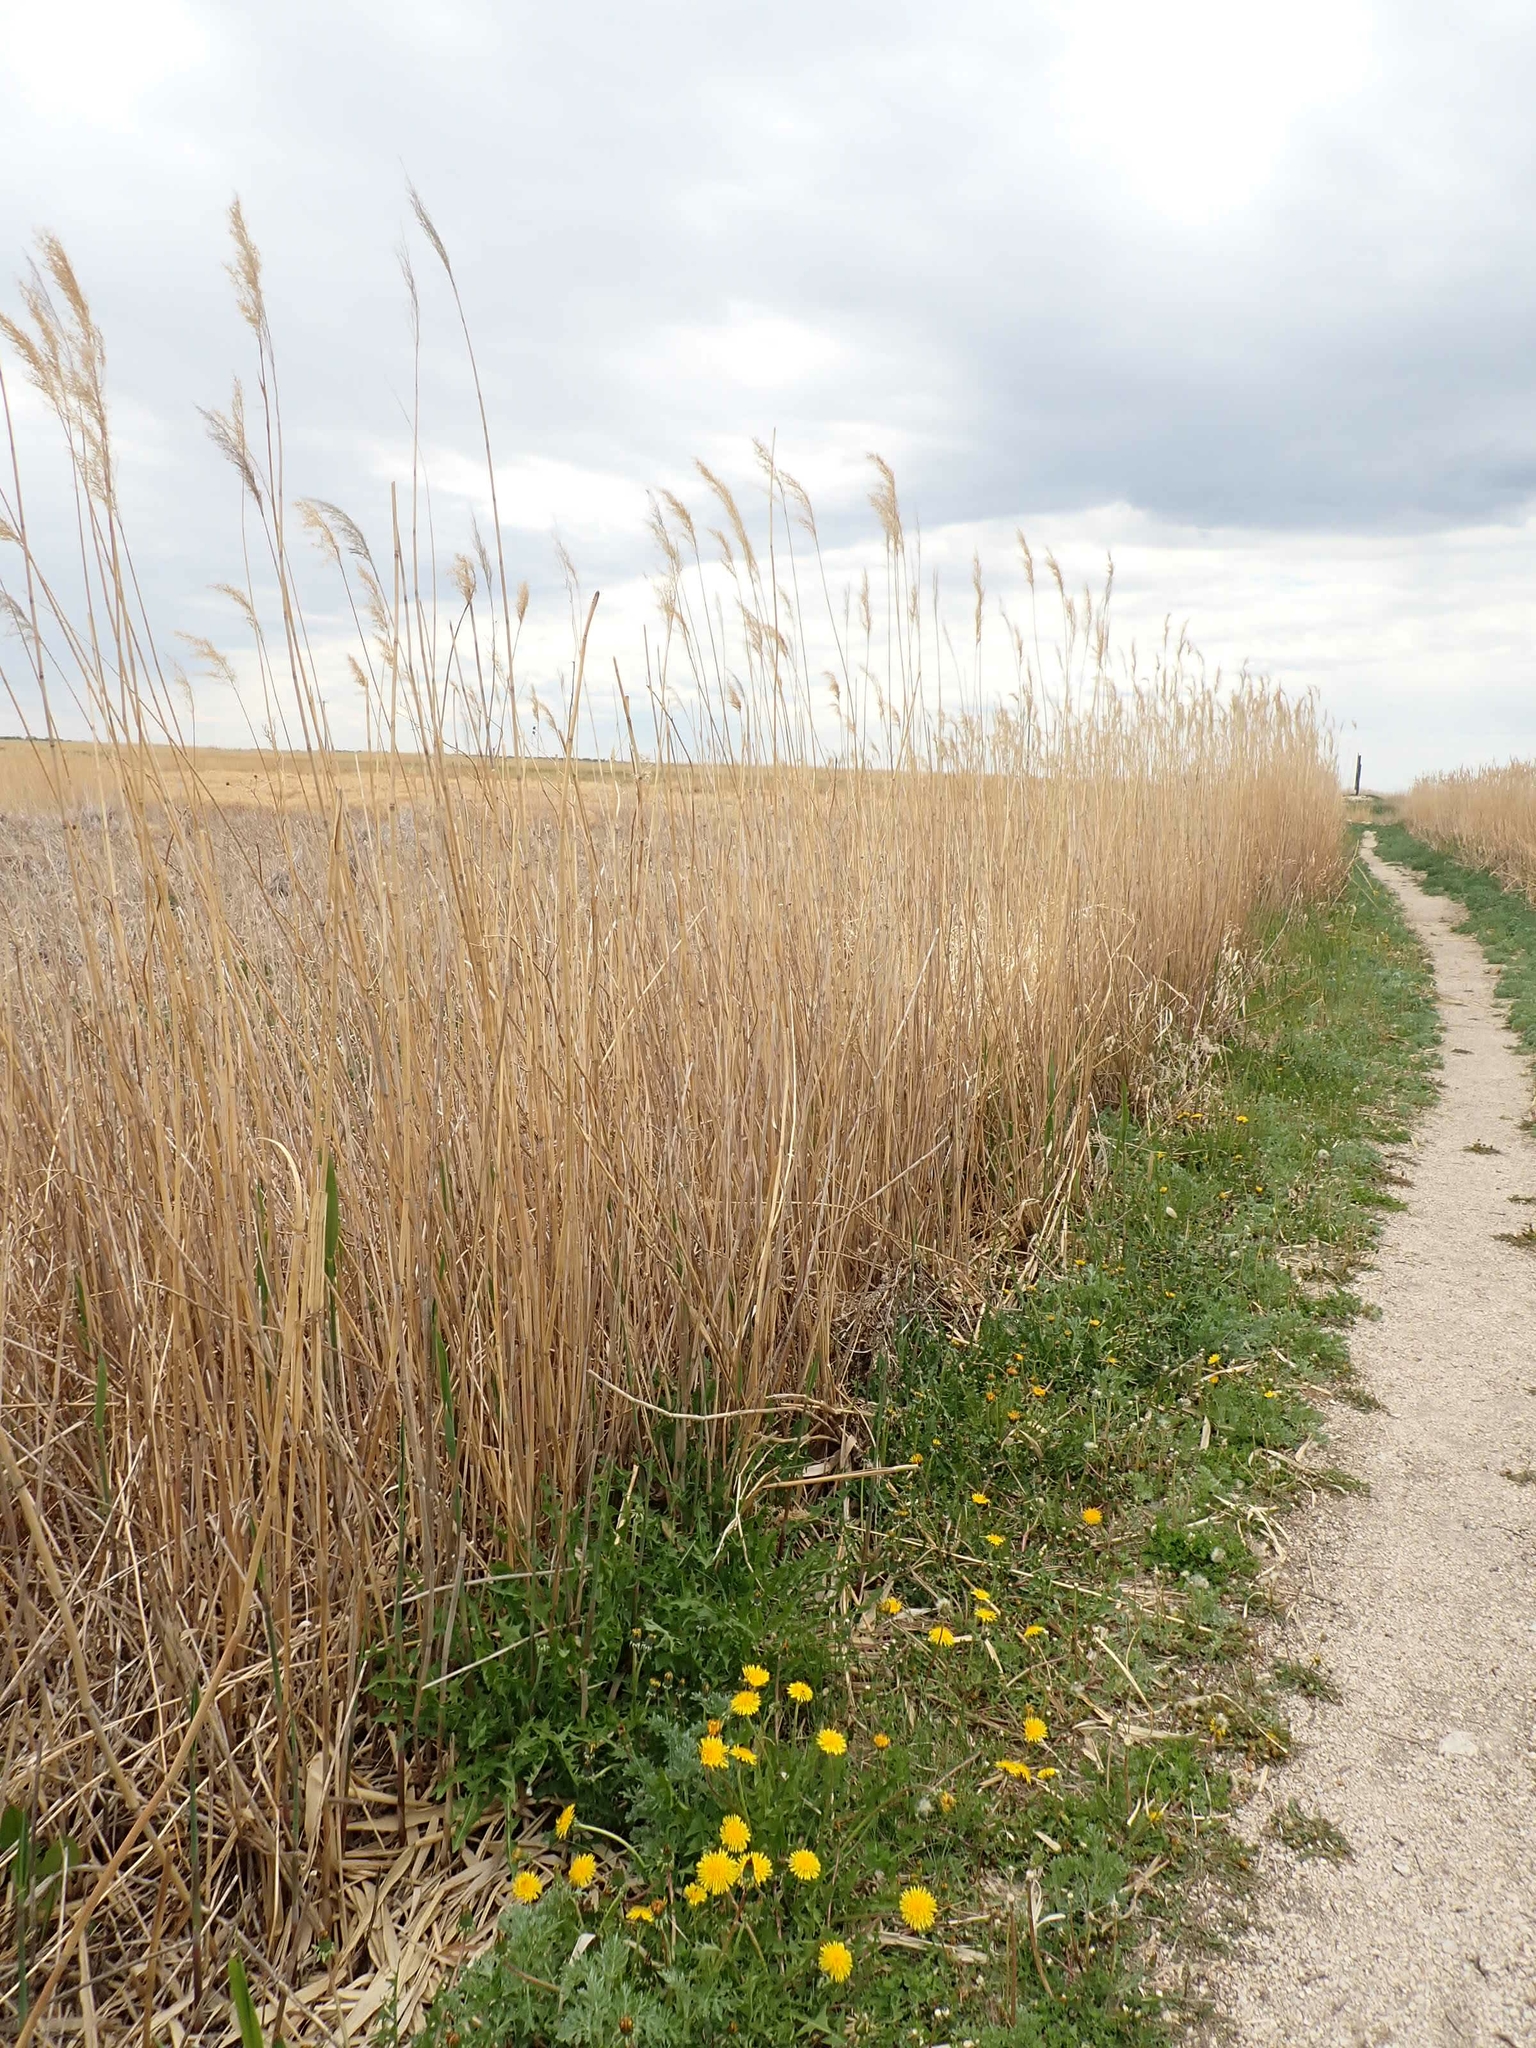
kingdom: Plantae
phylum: Tracheophyta
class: Liliopsida
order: Poales
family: Poaceae
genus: Phragmites
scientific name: Phragmites australis
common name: Common reed
